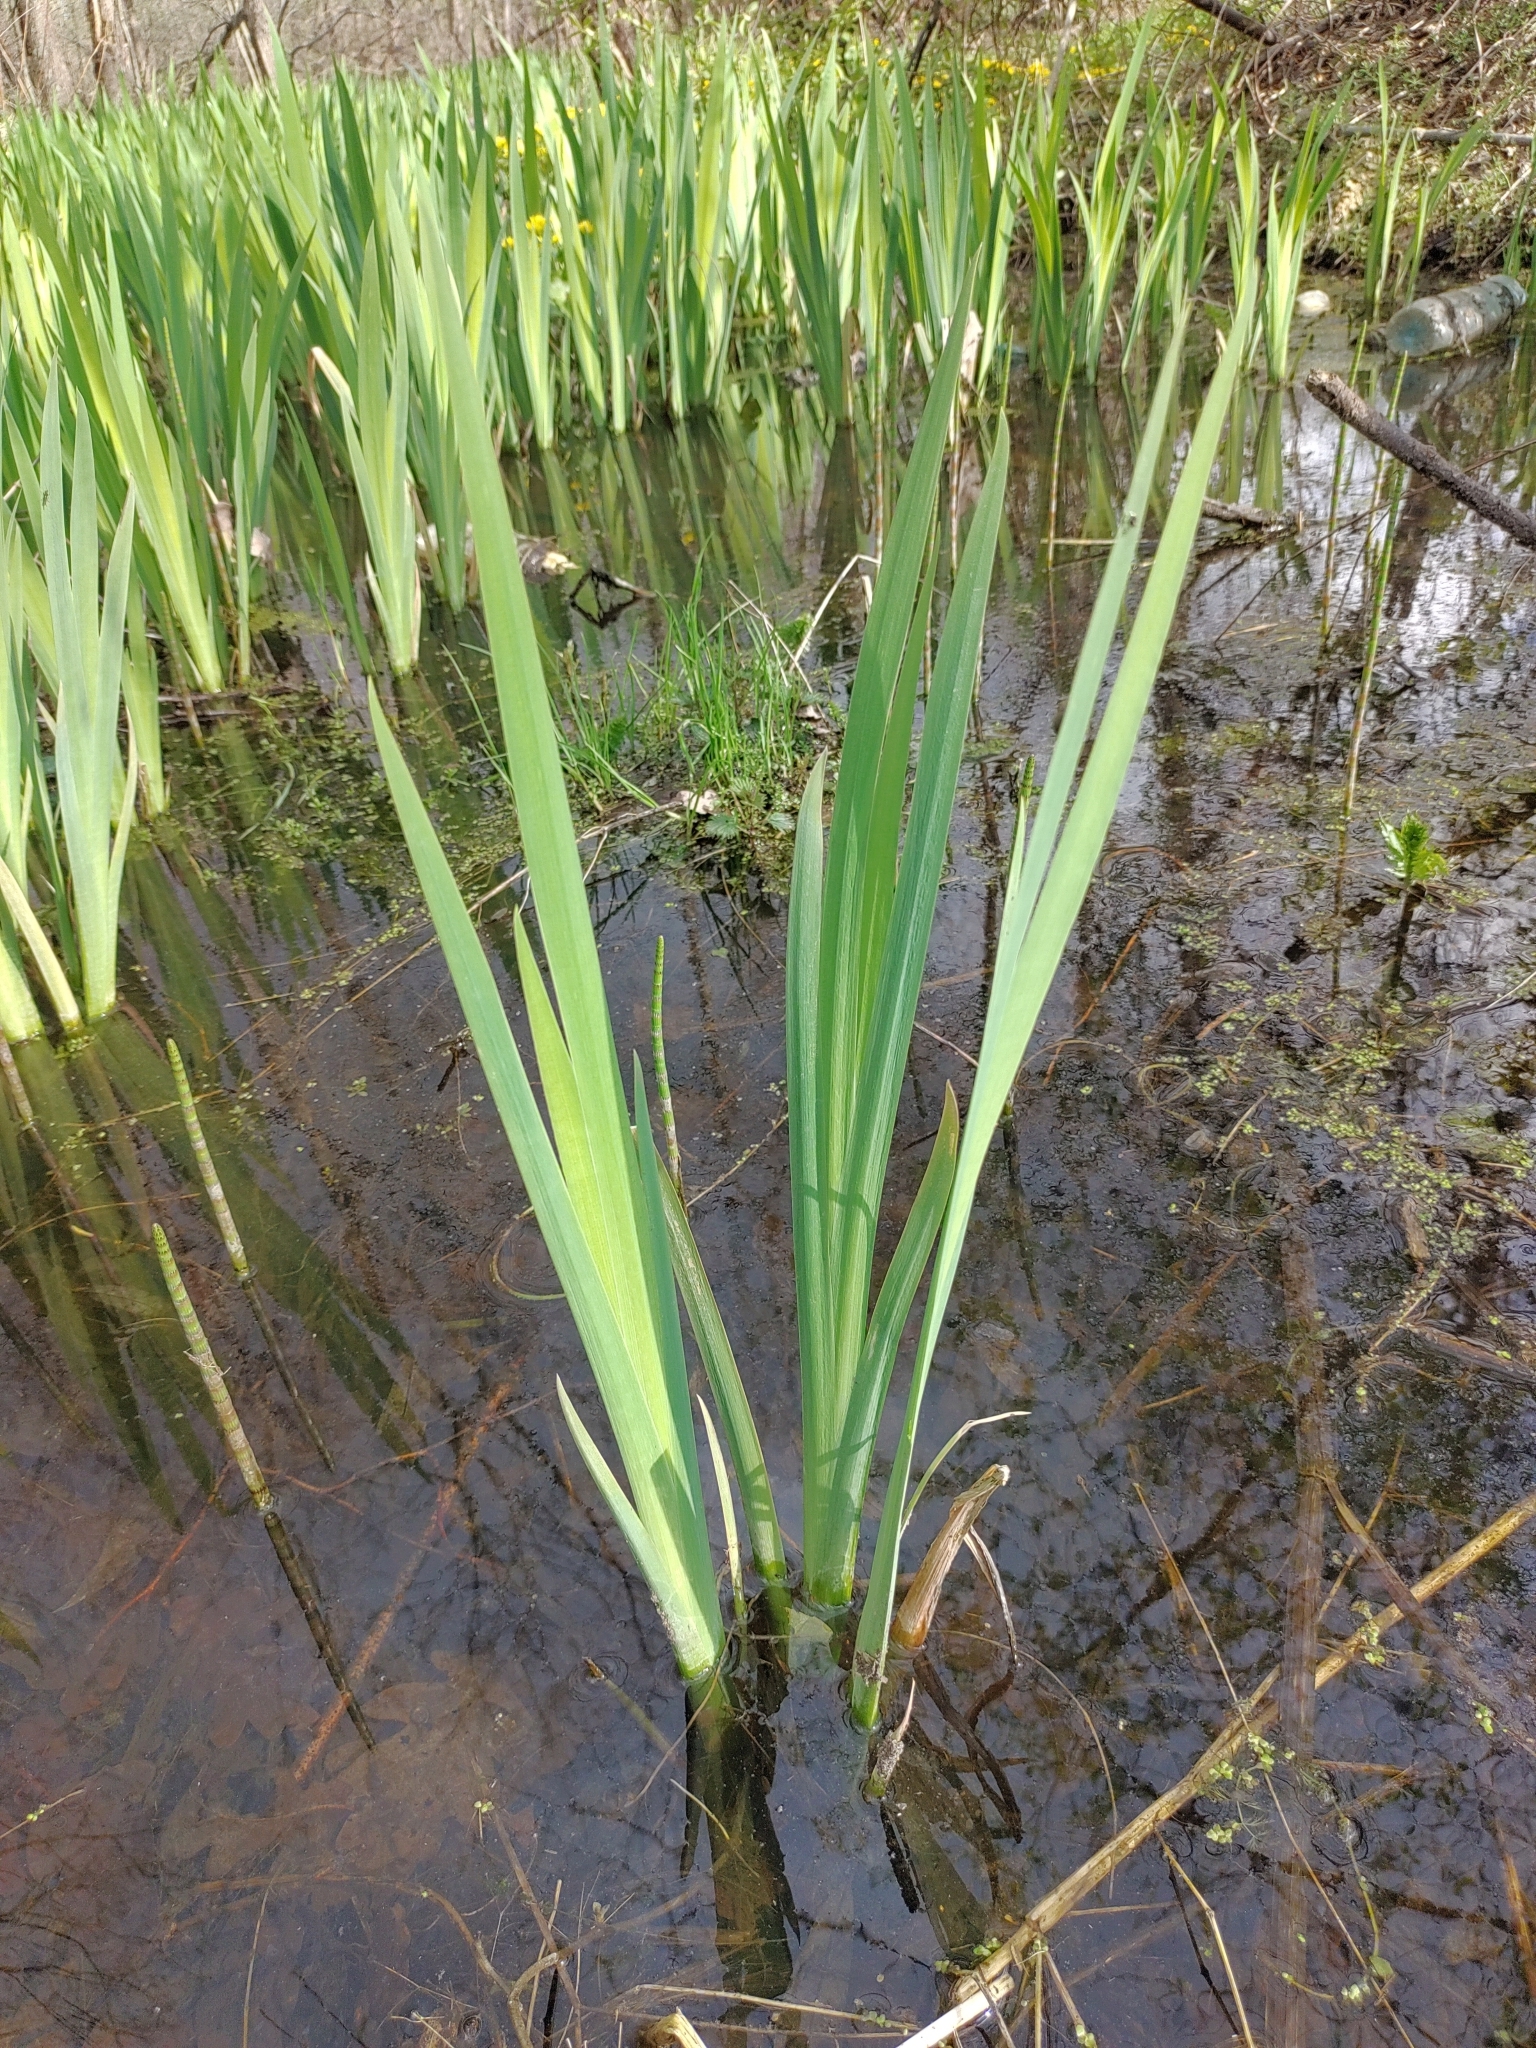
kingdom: Plantae
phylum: Tracheophyta
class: Liliopsida
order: Asparagales
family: Iridaceae
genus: Iris
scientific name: Iris pseudacorus
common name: Yellow flag
